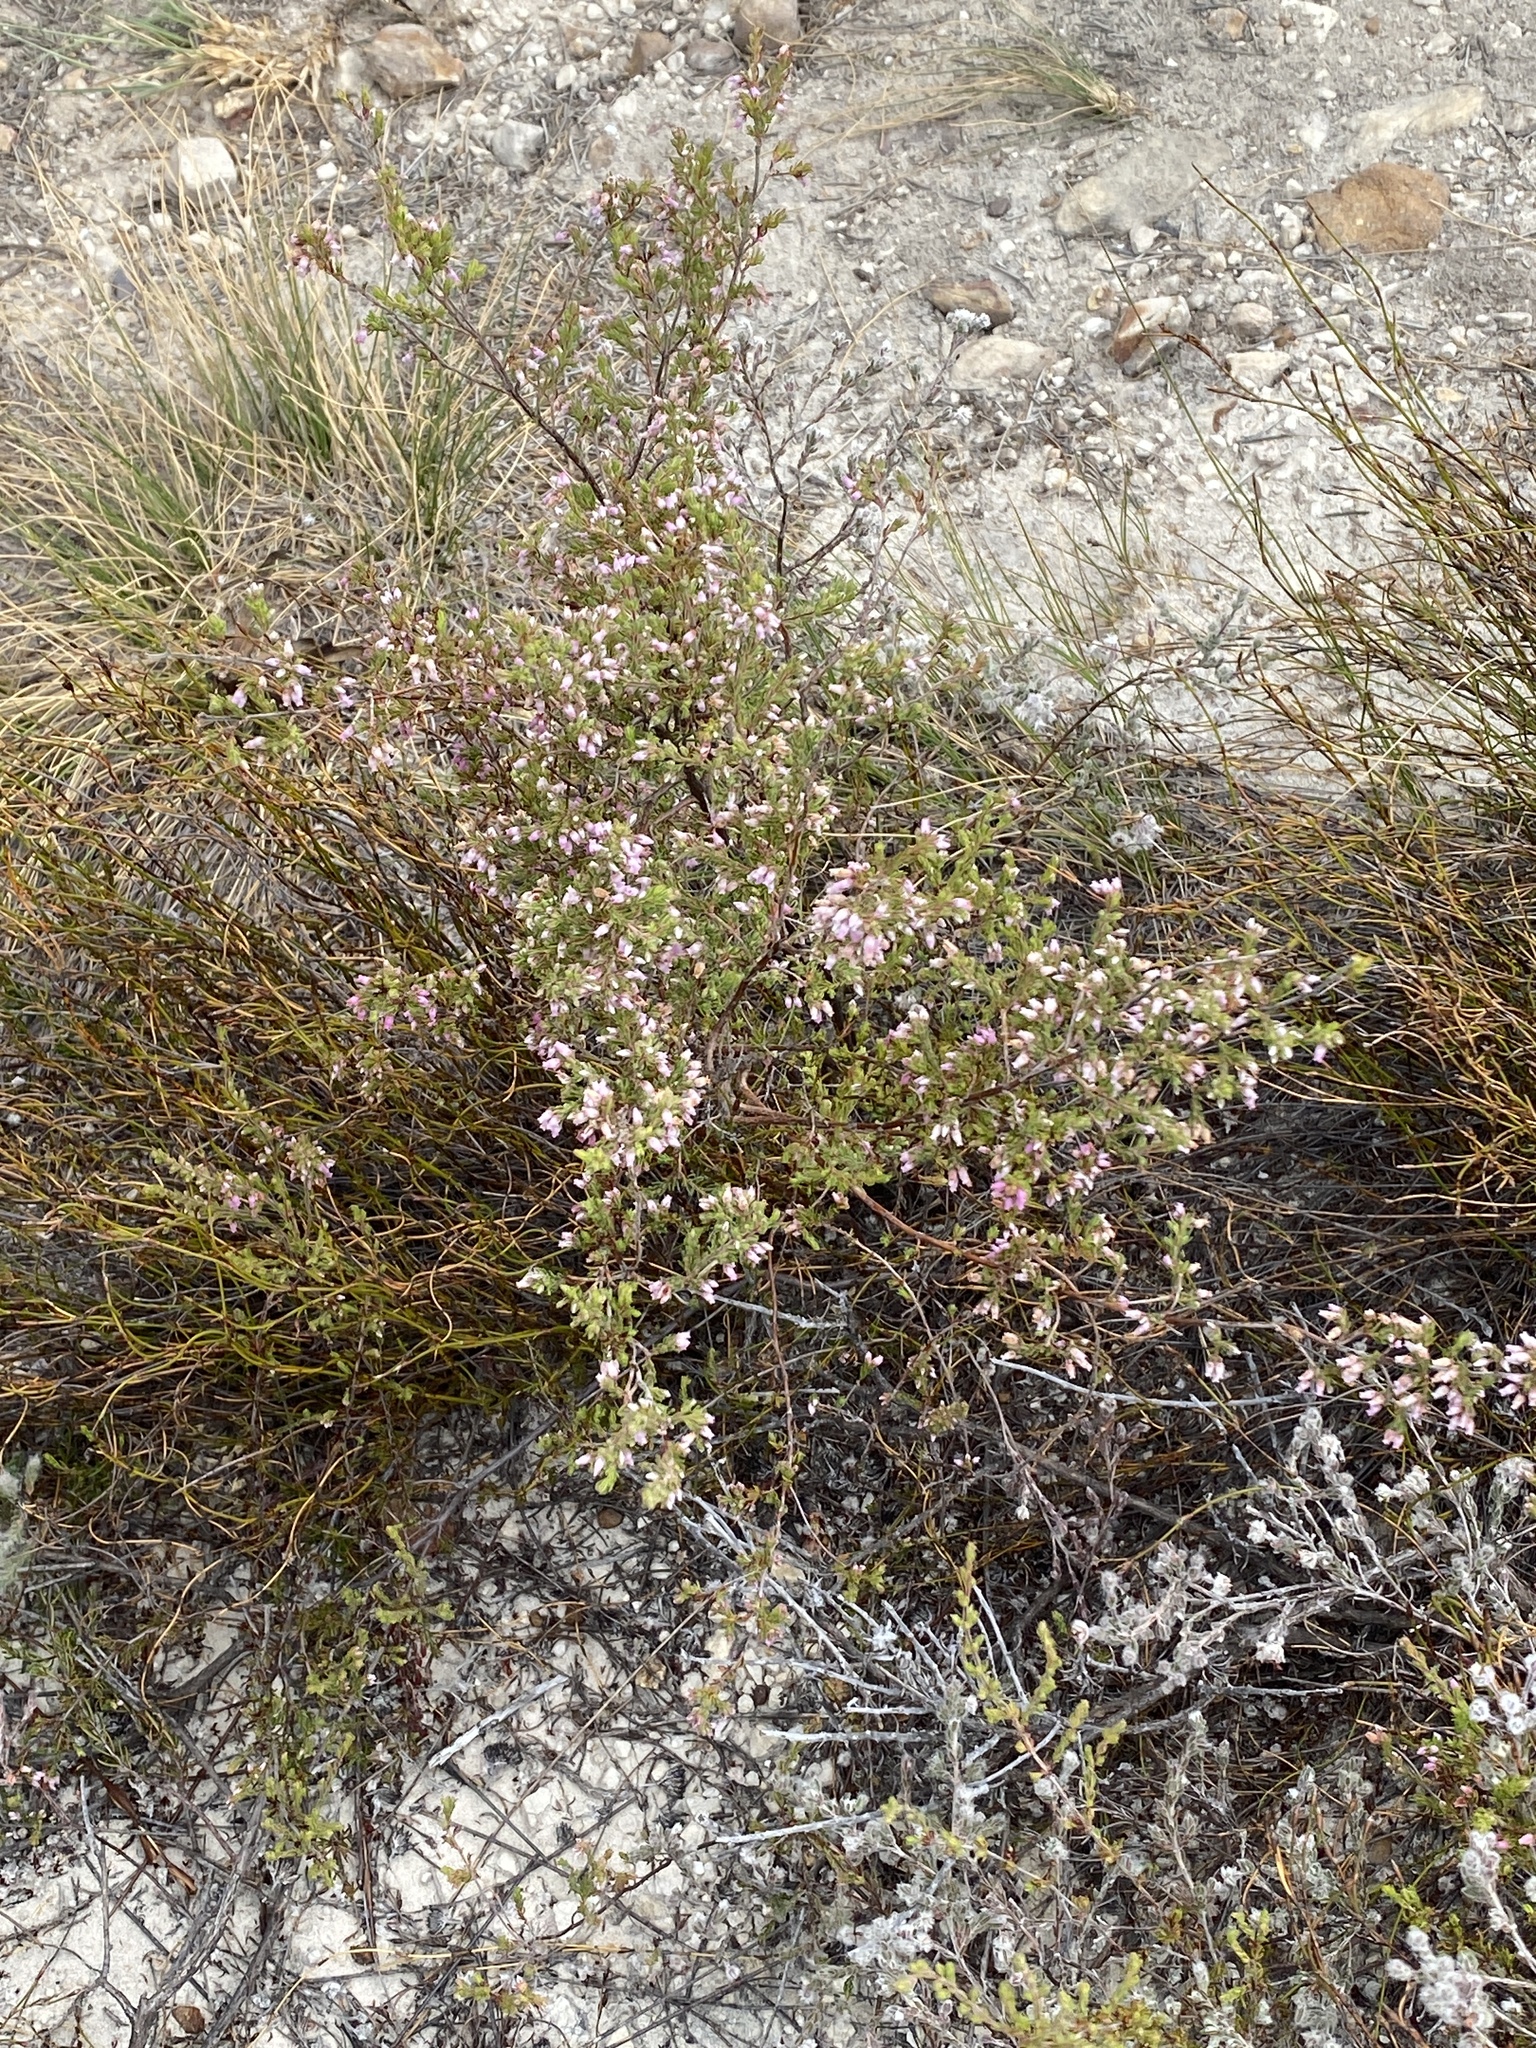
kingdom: Plantae
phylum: Tracheophyta
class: Magnoliopsida
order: Ericales
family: Ericaceae
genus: Erica
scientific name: Erica hirtiflora
